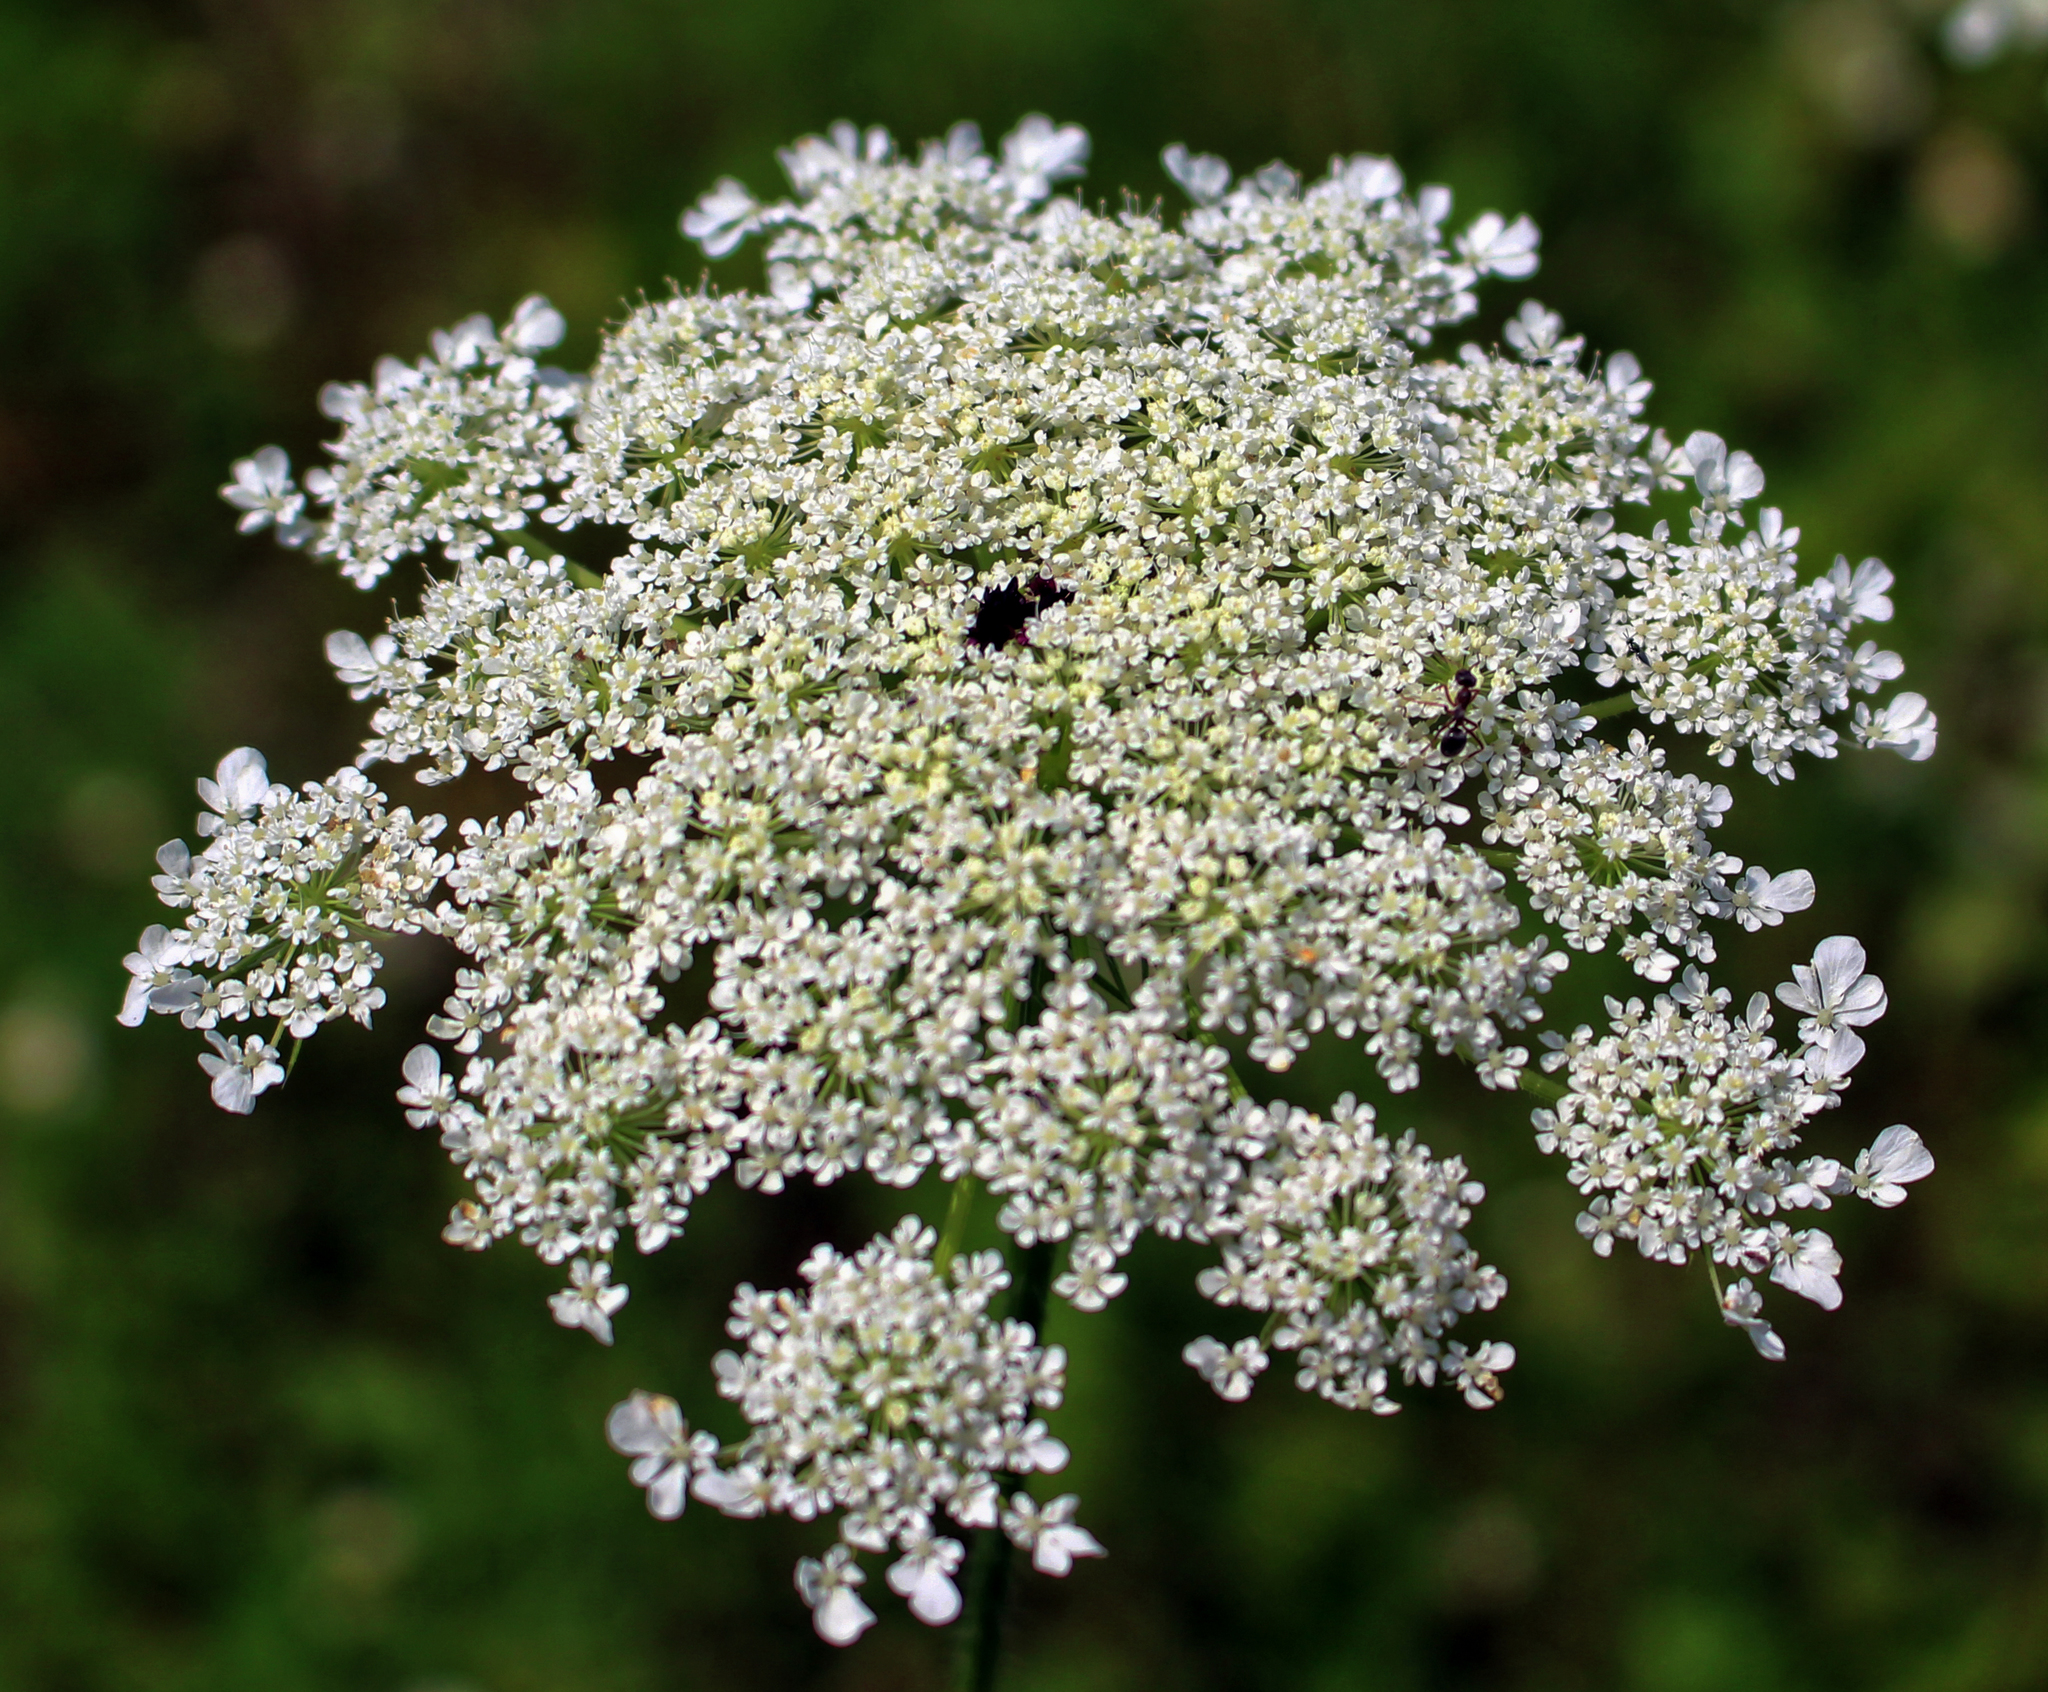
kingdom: Plantae
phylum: Tracheophyta
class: Magnoliopsida
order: Apiales
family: Apiaceae
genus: Daucus
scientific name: Daucus carota
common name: Wild carrot
